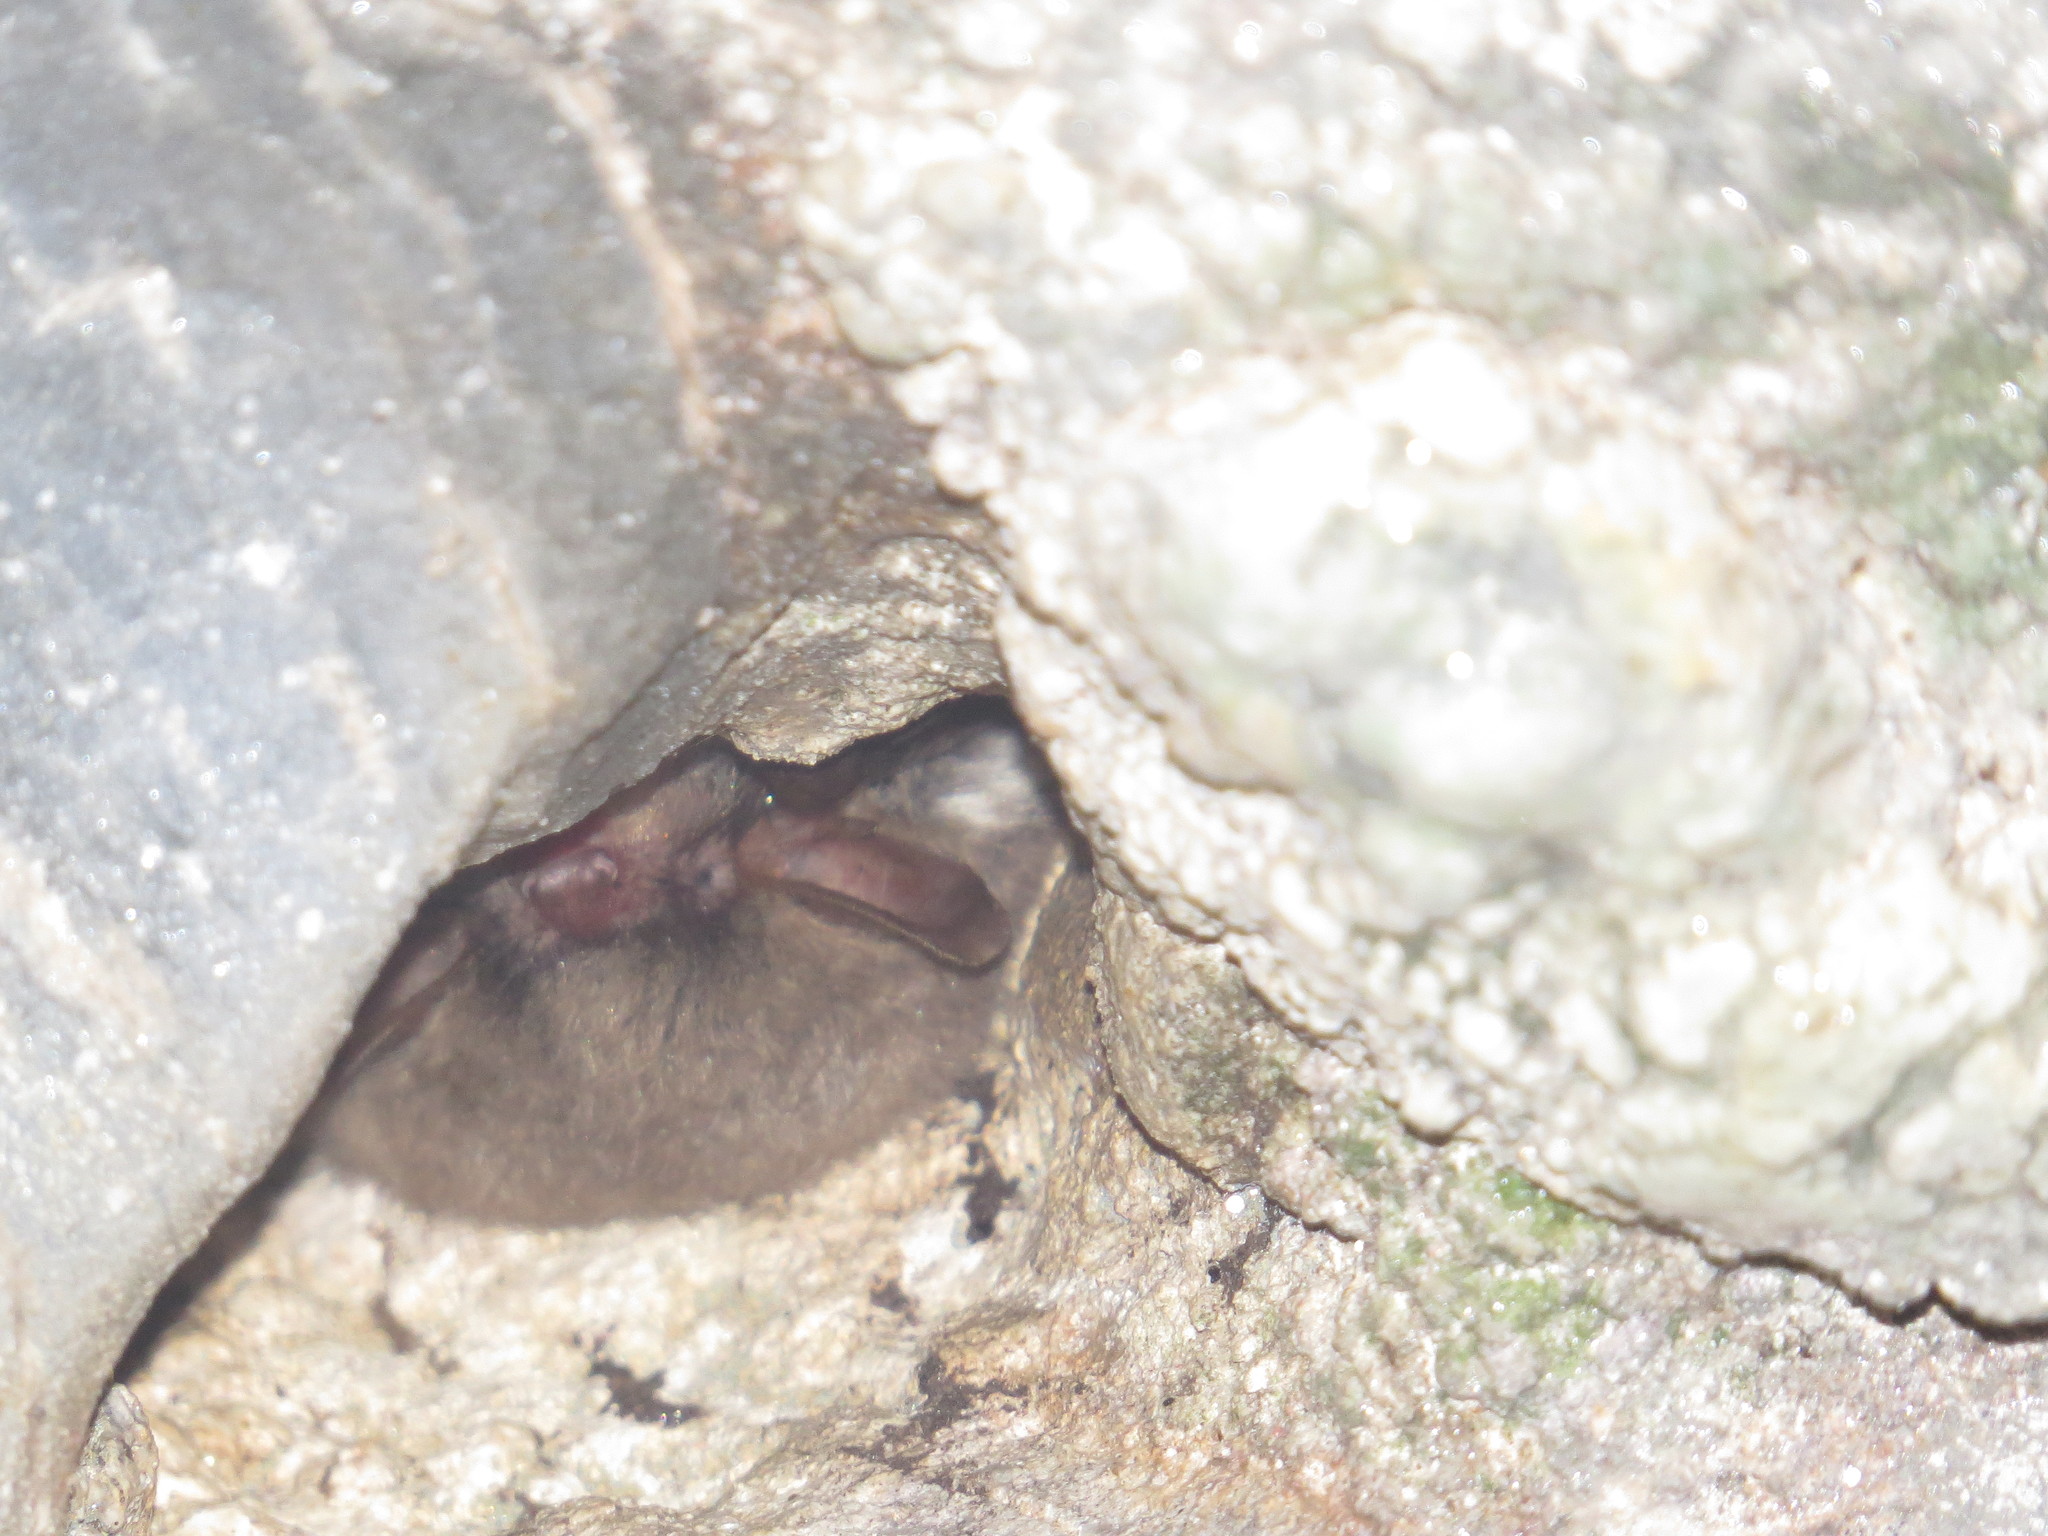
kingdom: Animalia
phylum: Chordata
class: Mammalia
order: Chiroptera
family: Vespertilionidae
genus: Myotis
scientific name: Myotis crypticus
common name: Cryptic myotis
